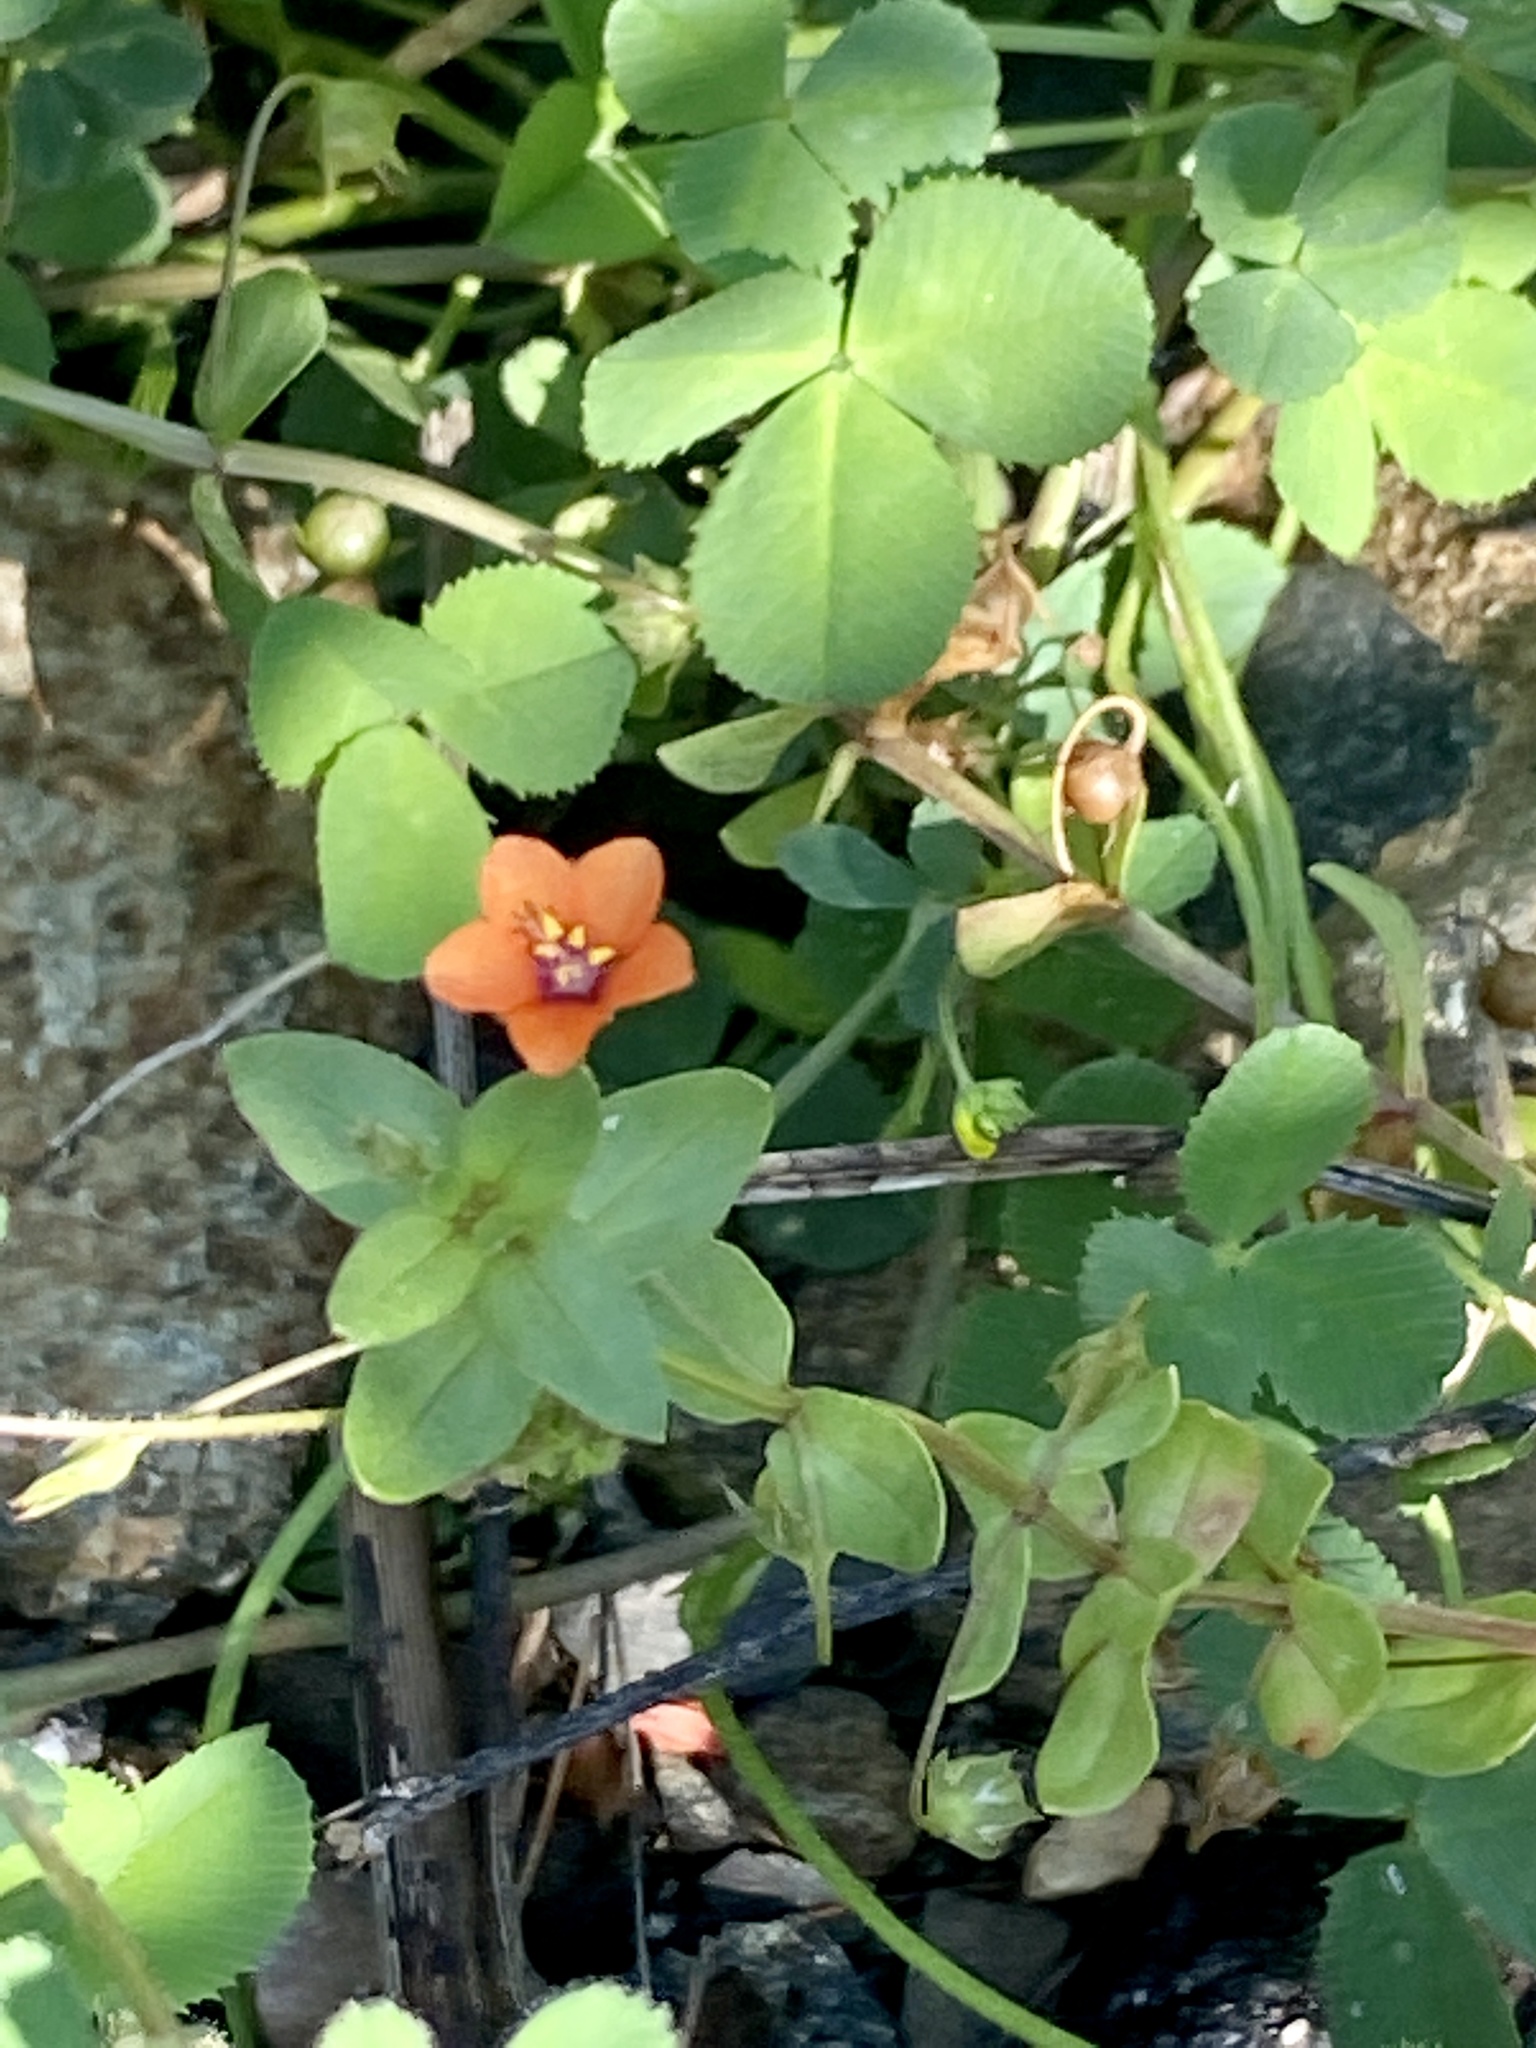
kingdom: Plantae
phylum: Tracheophyta
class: Magnoliopsida
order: Ericales
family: Primulaceae
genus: Lysimachia
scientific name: Lysimachia arvensis
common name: Scarlet pimpernel
